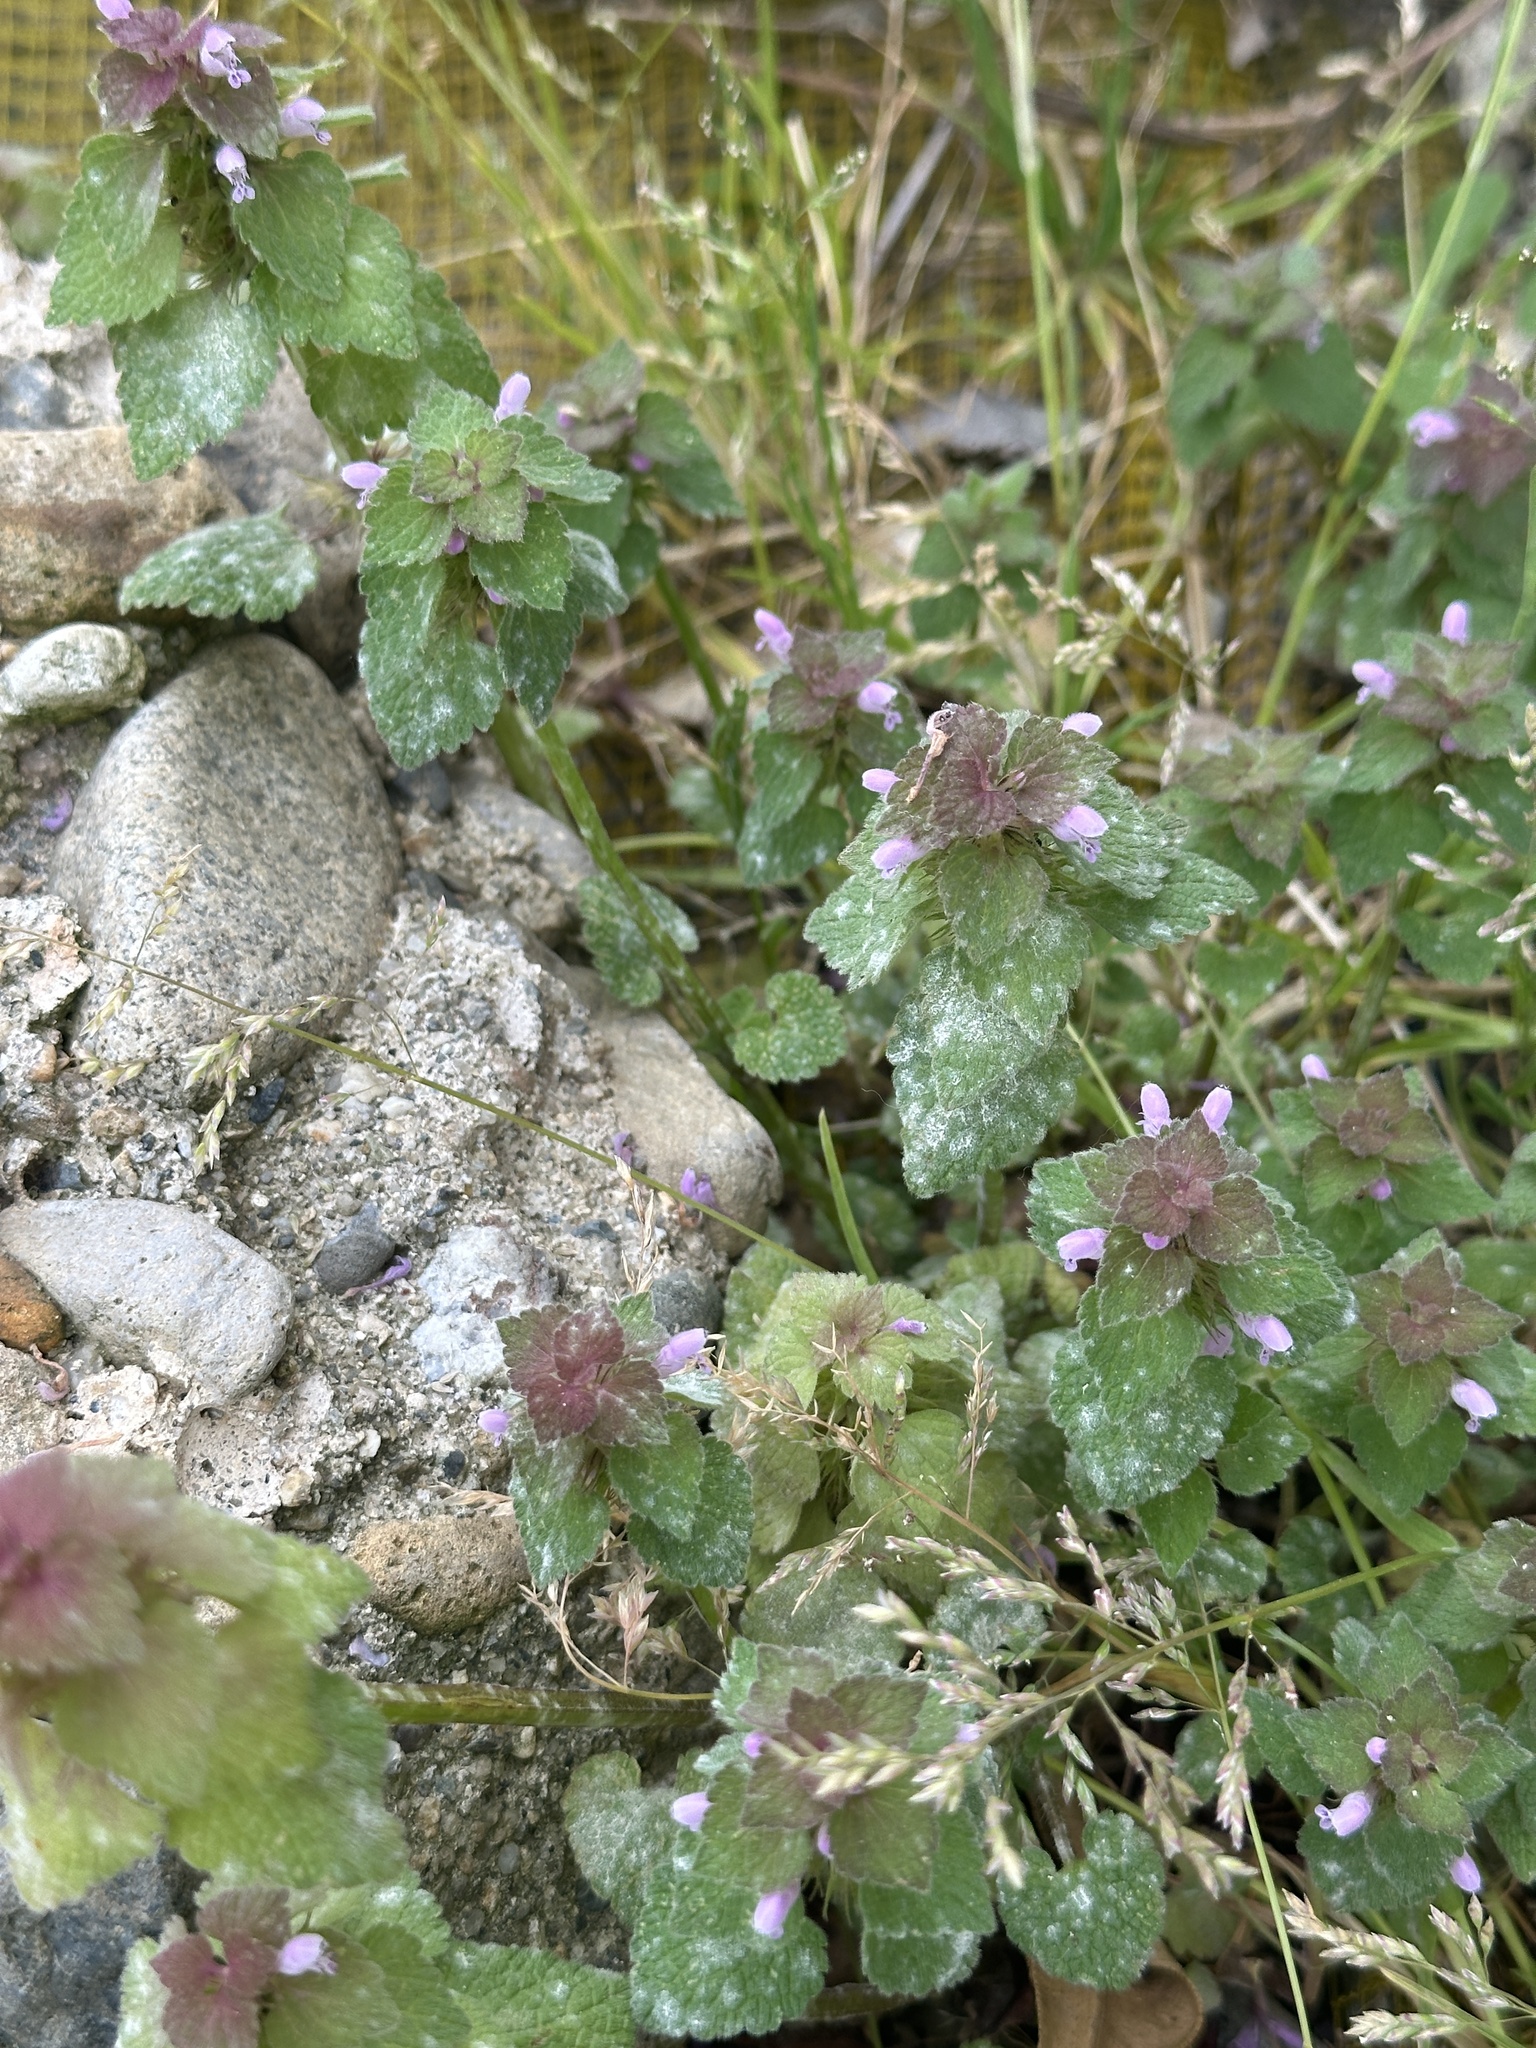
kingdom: Plantae
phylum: Tracheophyta
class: Magnoliopsida
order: Lamiales
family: Lamiaceae
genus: Lamium
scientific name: Lamium purpureum
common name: Red dead-nettle
